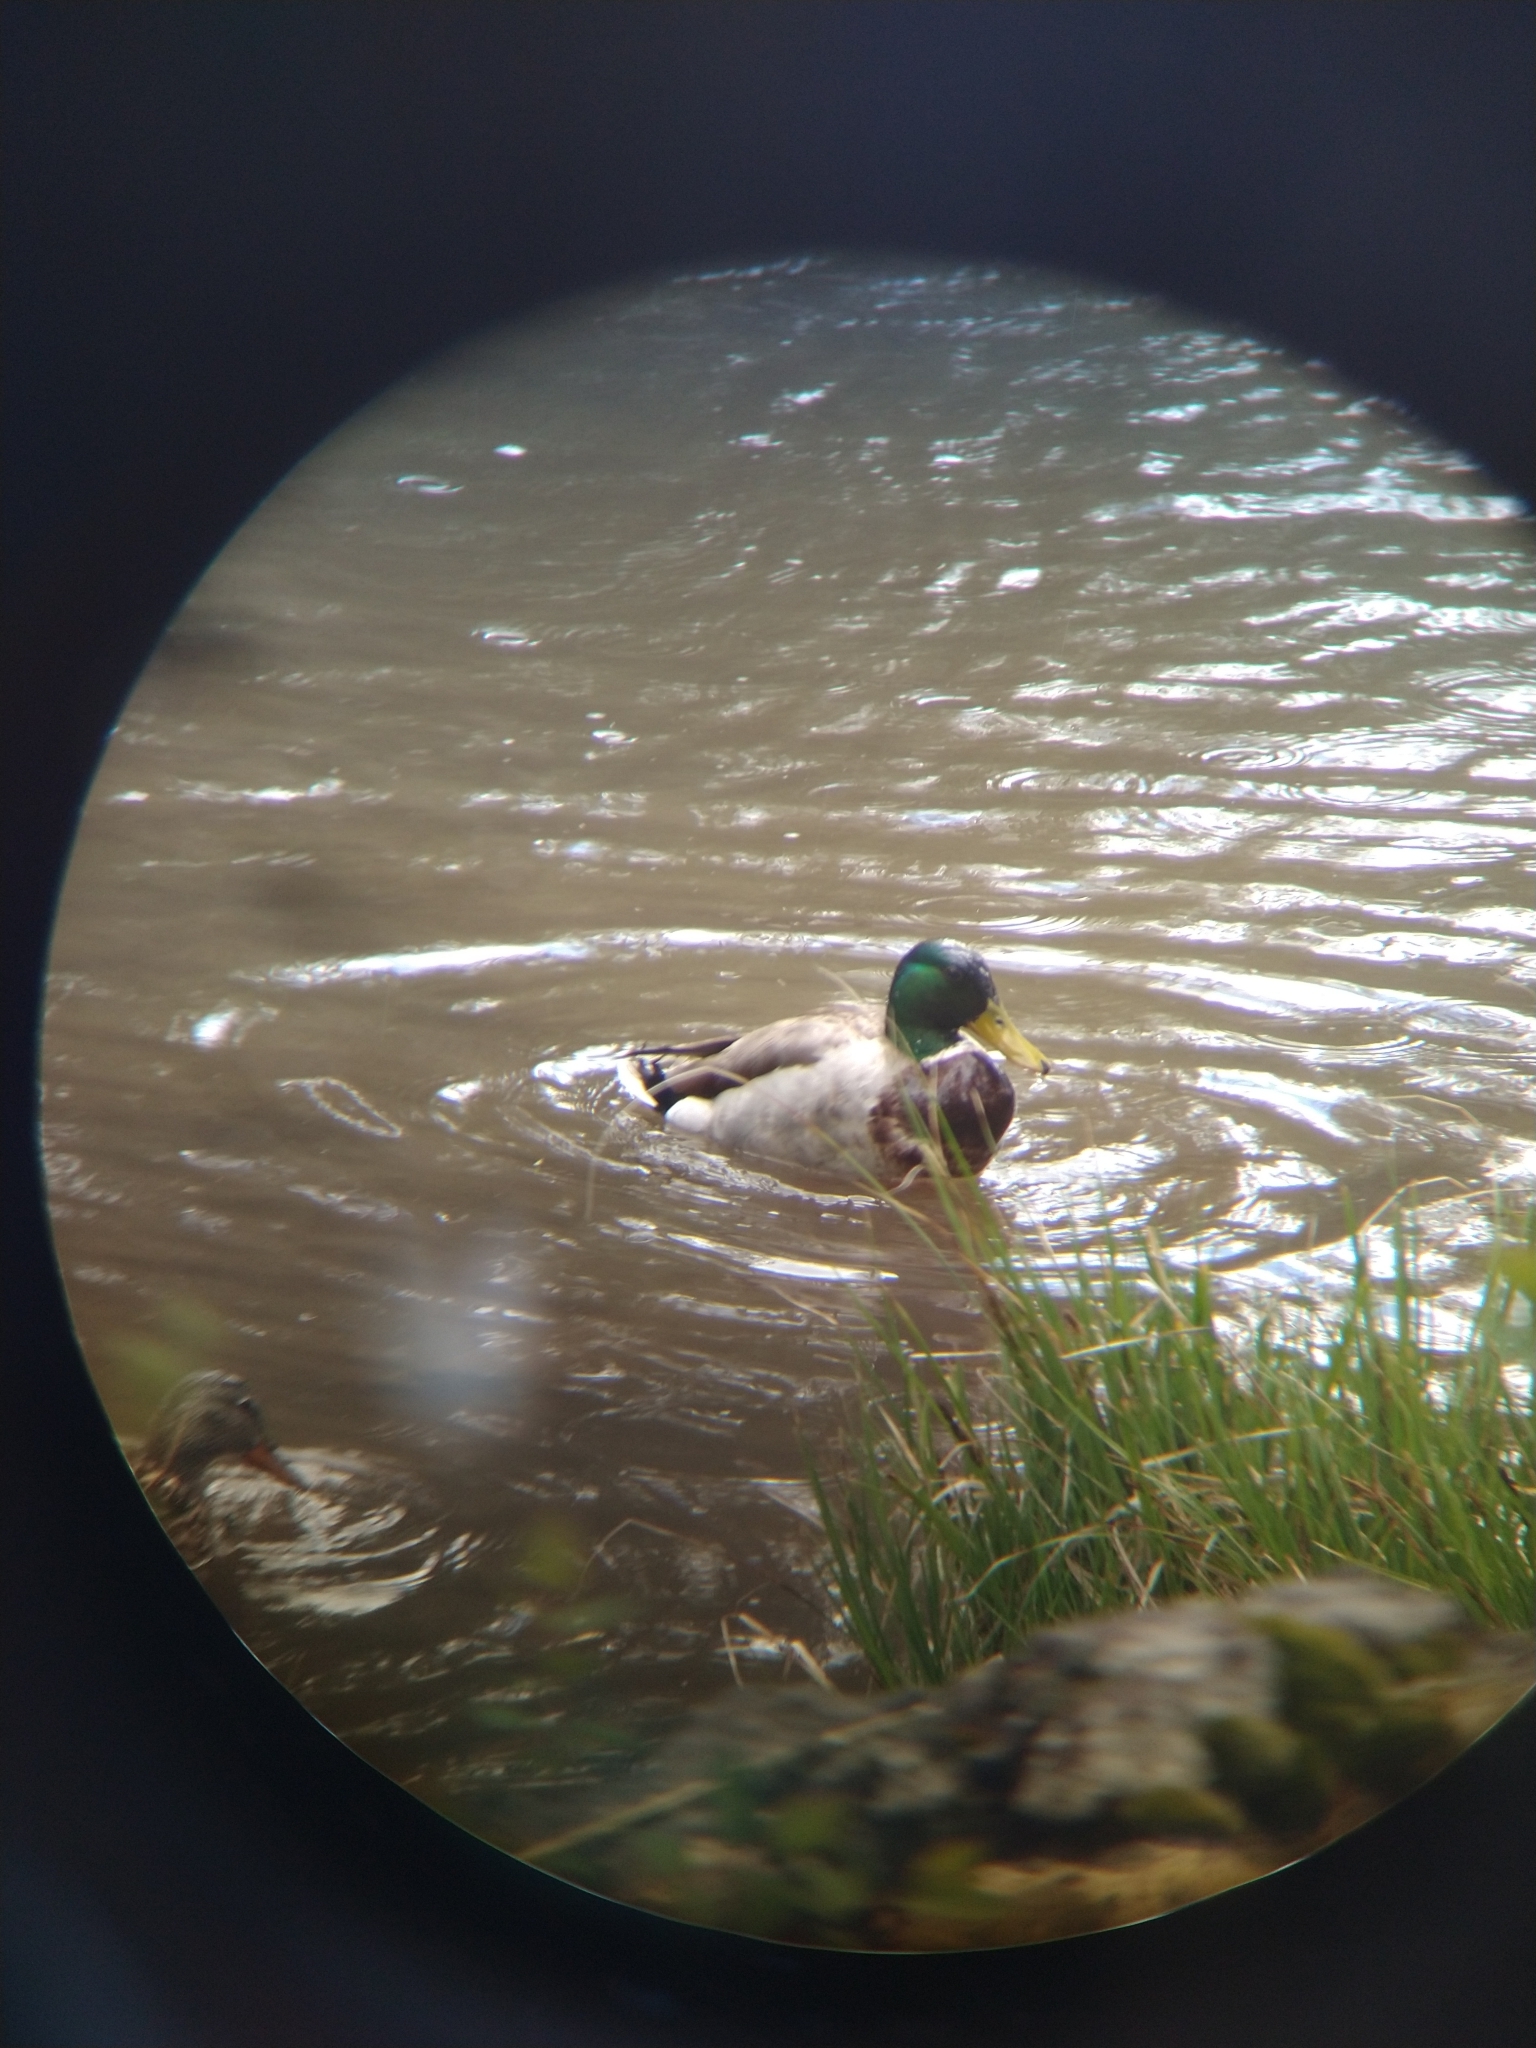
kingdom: Animalia
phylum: Chordata
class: Aves
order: Anseriformes
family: Anatidae
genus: Anas
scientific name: Anas platyrhynchos
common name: Mallard
